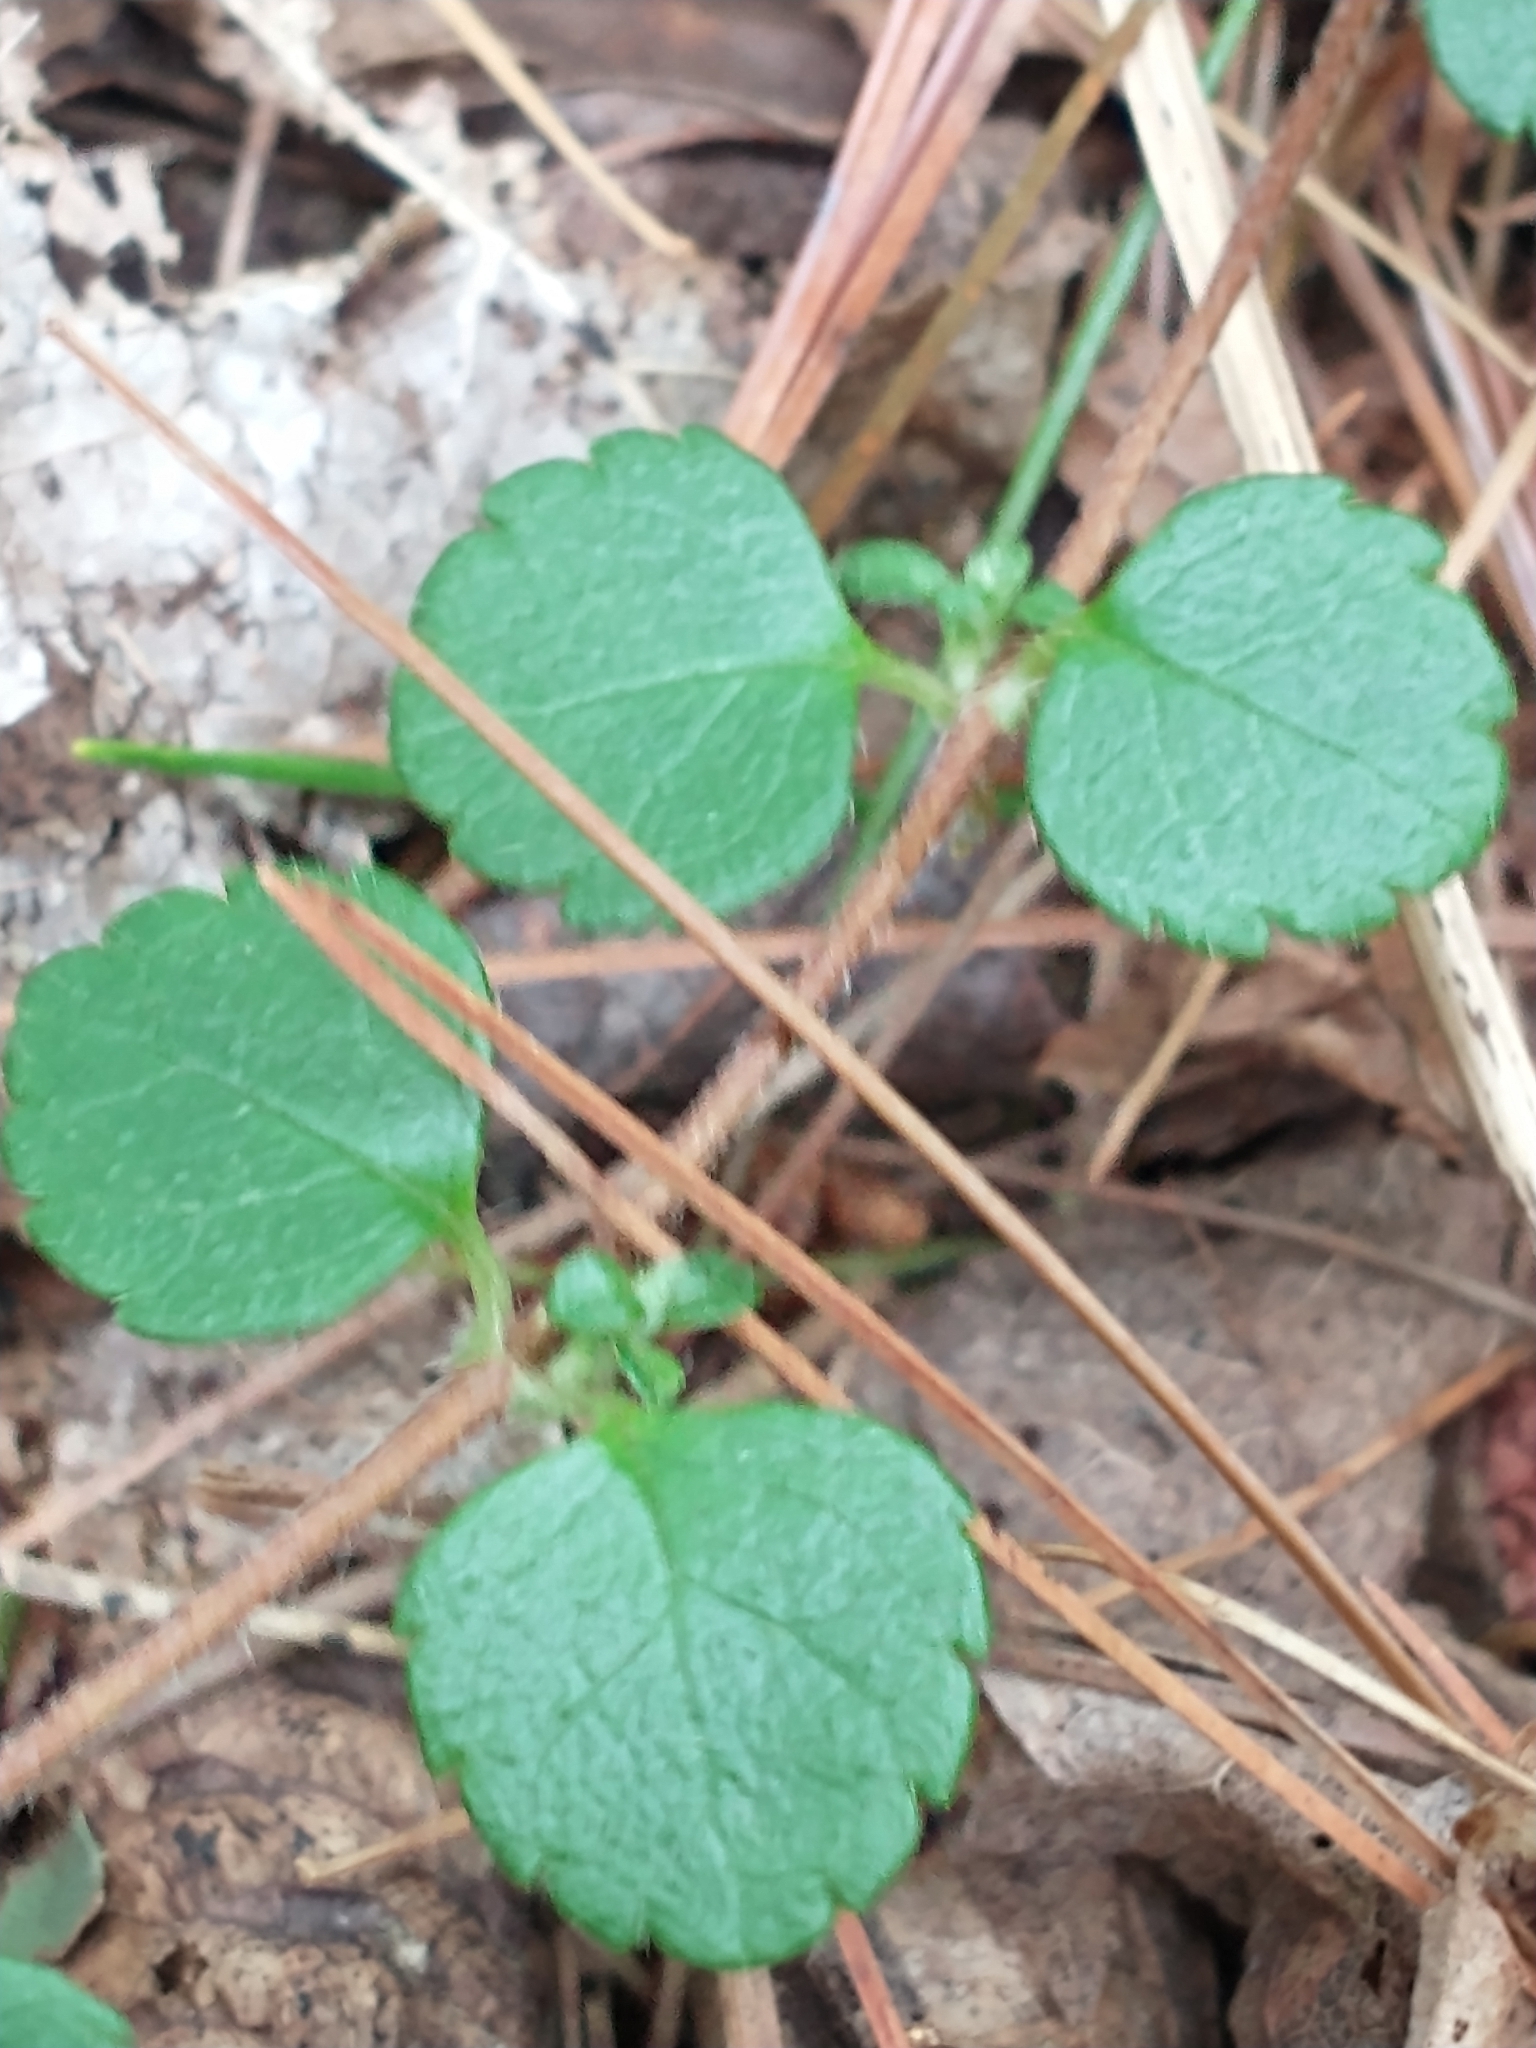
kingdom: Plantae
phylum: Tracheophyta
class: Magnoliopsida
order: Dipsacales
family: Caprifoliaceae
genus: Linnaea
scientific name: Linnaea borealis
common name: Twinflower
